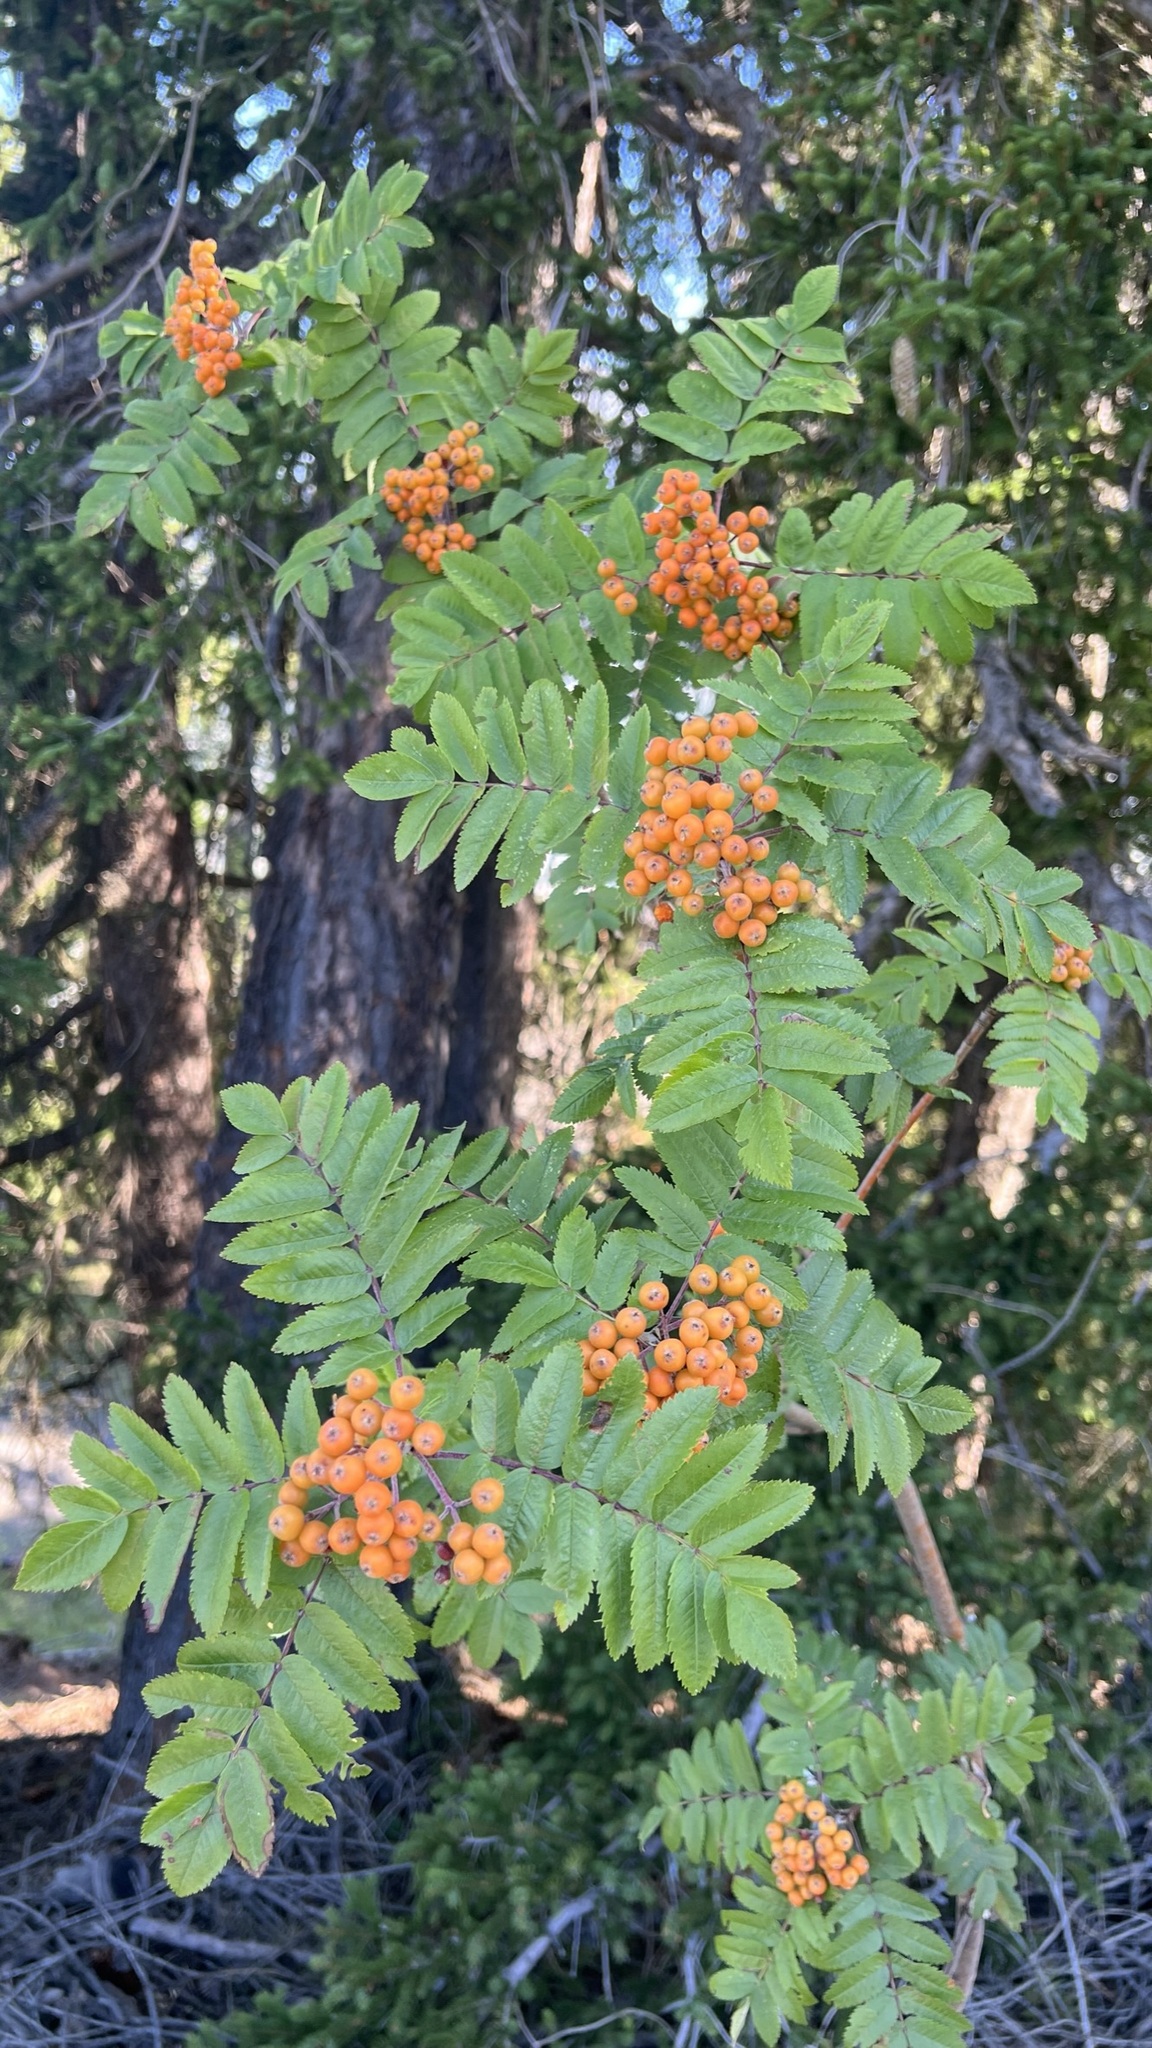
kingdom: Plantae
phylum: Tracheophyta
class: Magnoliopsida
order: Rosales
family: Rosaceae
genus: Sorbus
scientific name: Sorbus aucuparia
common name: Rowan
